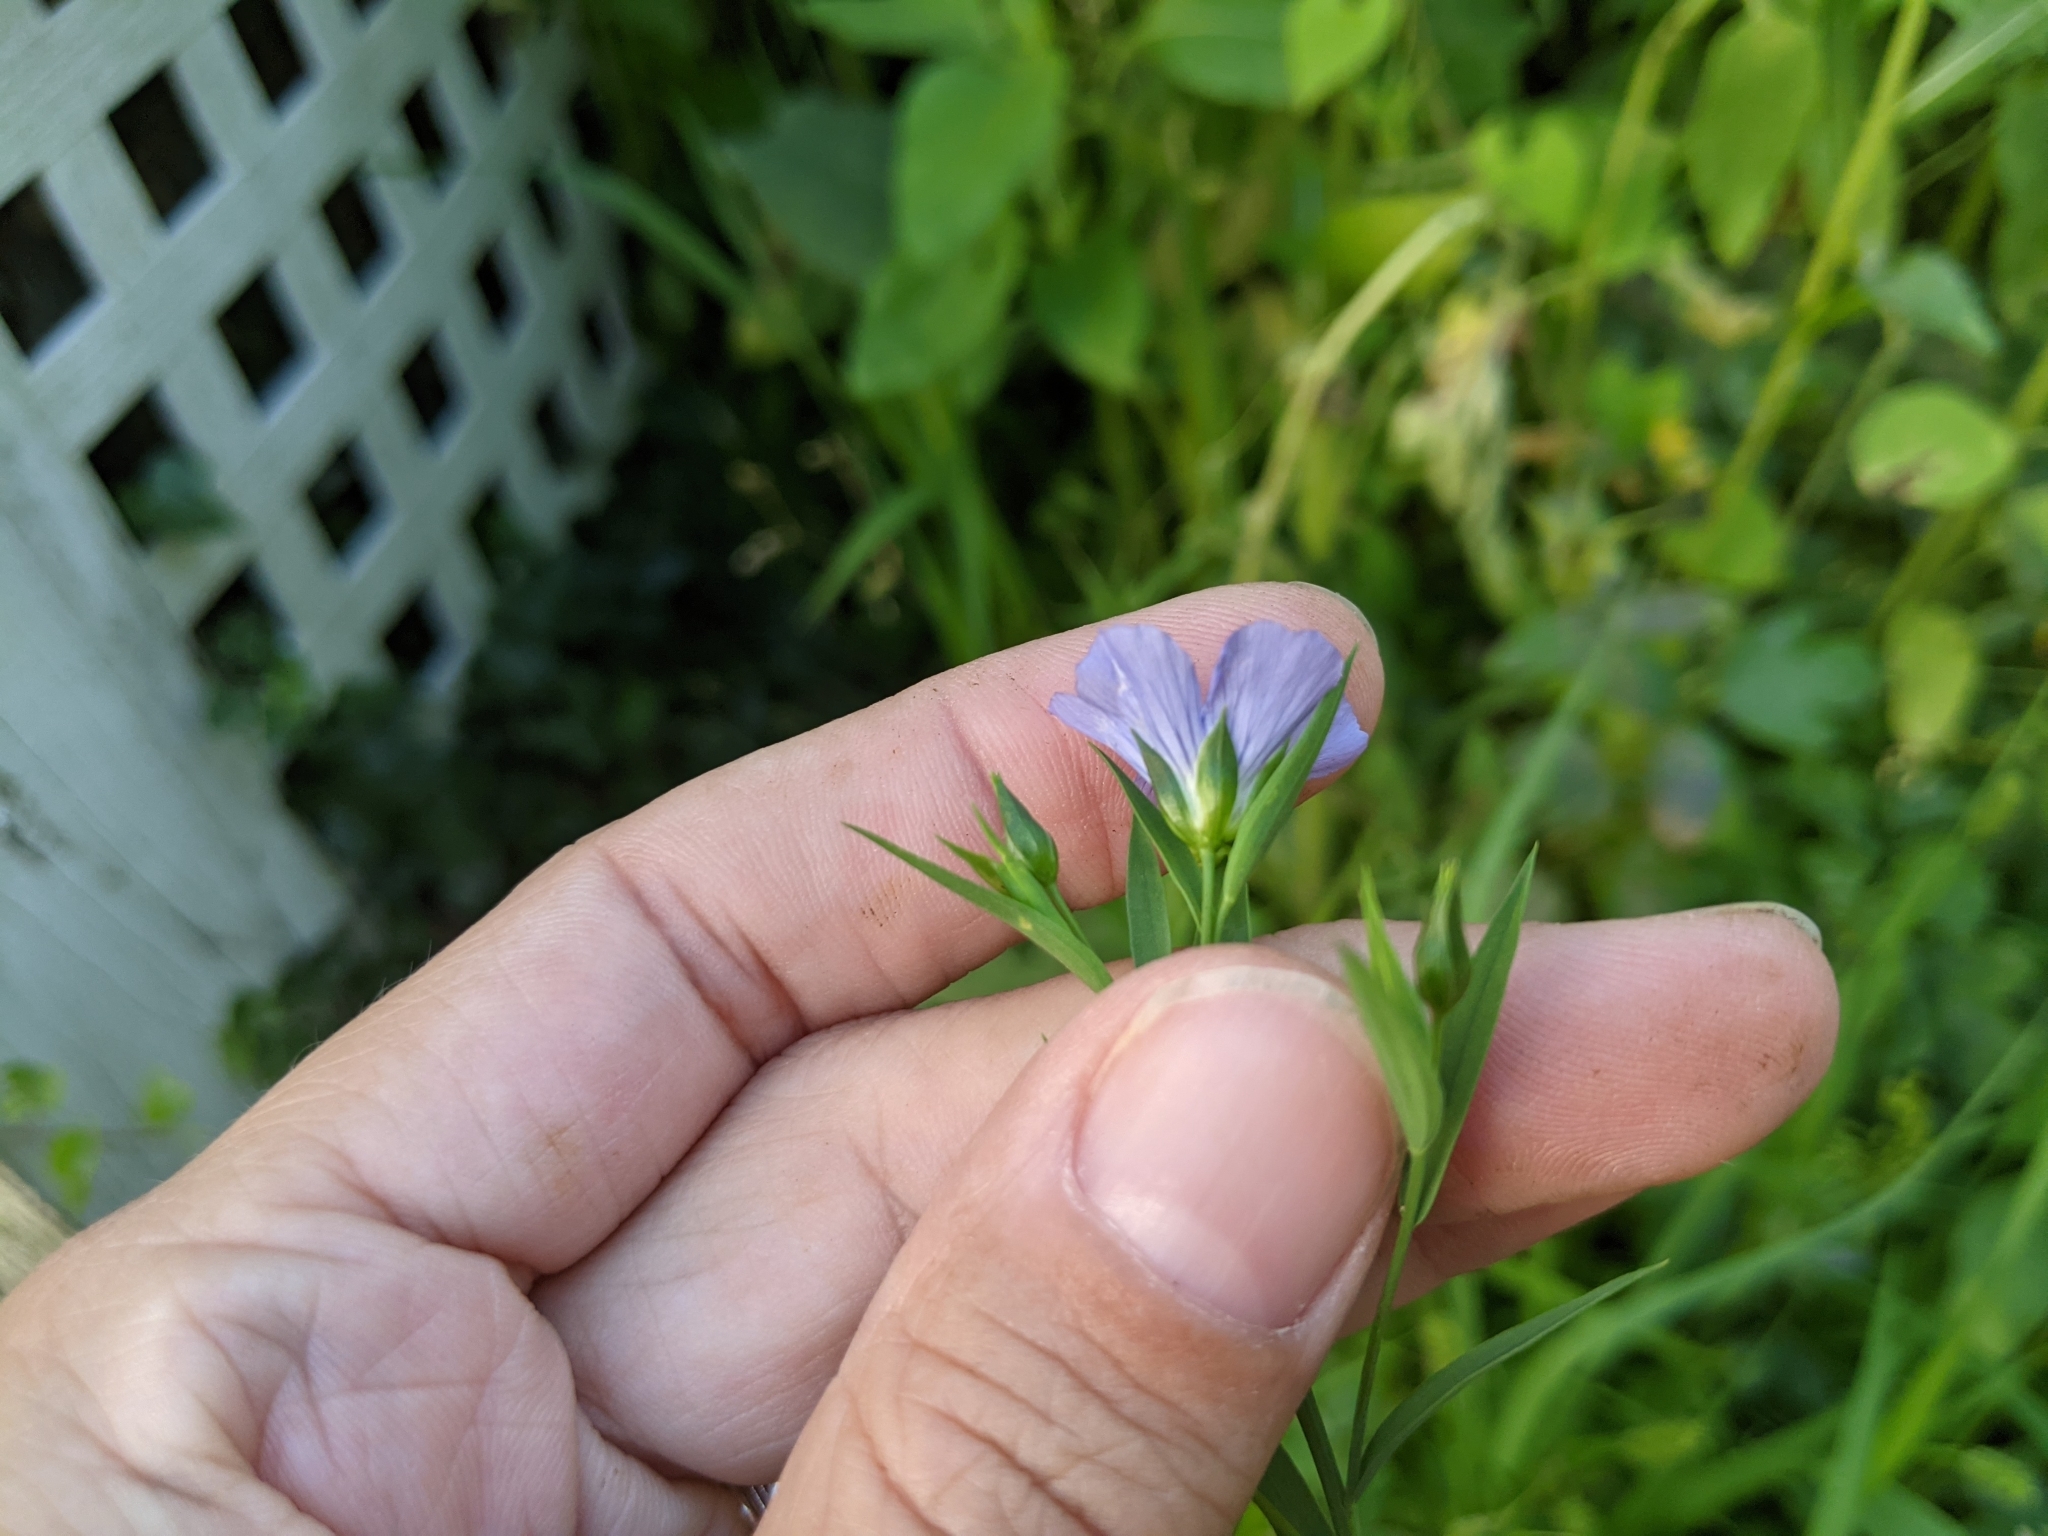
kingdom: Plantae
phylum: Tracheophyta
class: Magnoliopsida
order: Malpighiales
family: Linaceae
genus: Linum
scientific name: Linum usitatissimum
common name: Flax
